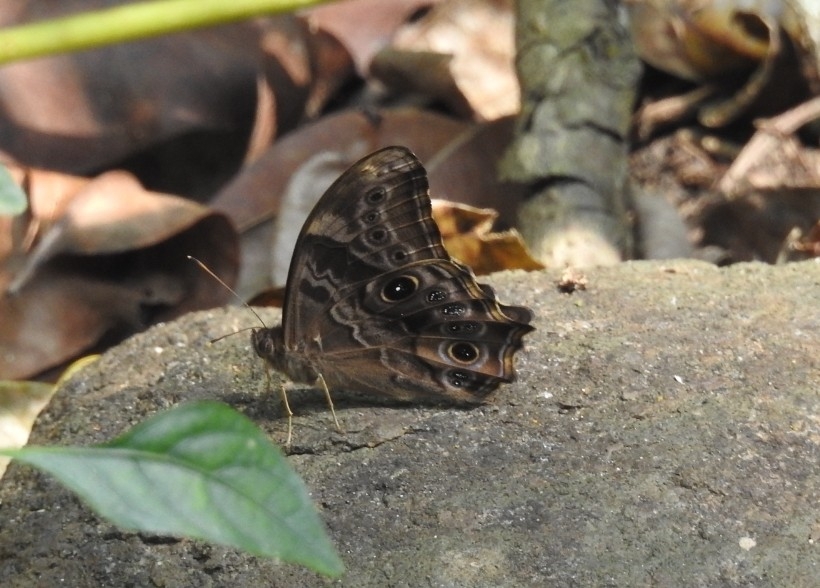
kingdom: Animalia
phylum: Arthropoda
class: Insecta
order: Lepidoptera
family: Nymphalidae
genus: Lethe
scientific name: Lethe drypetis
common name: Tamil treebrown
